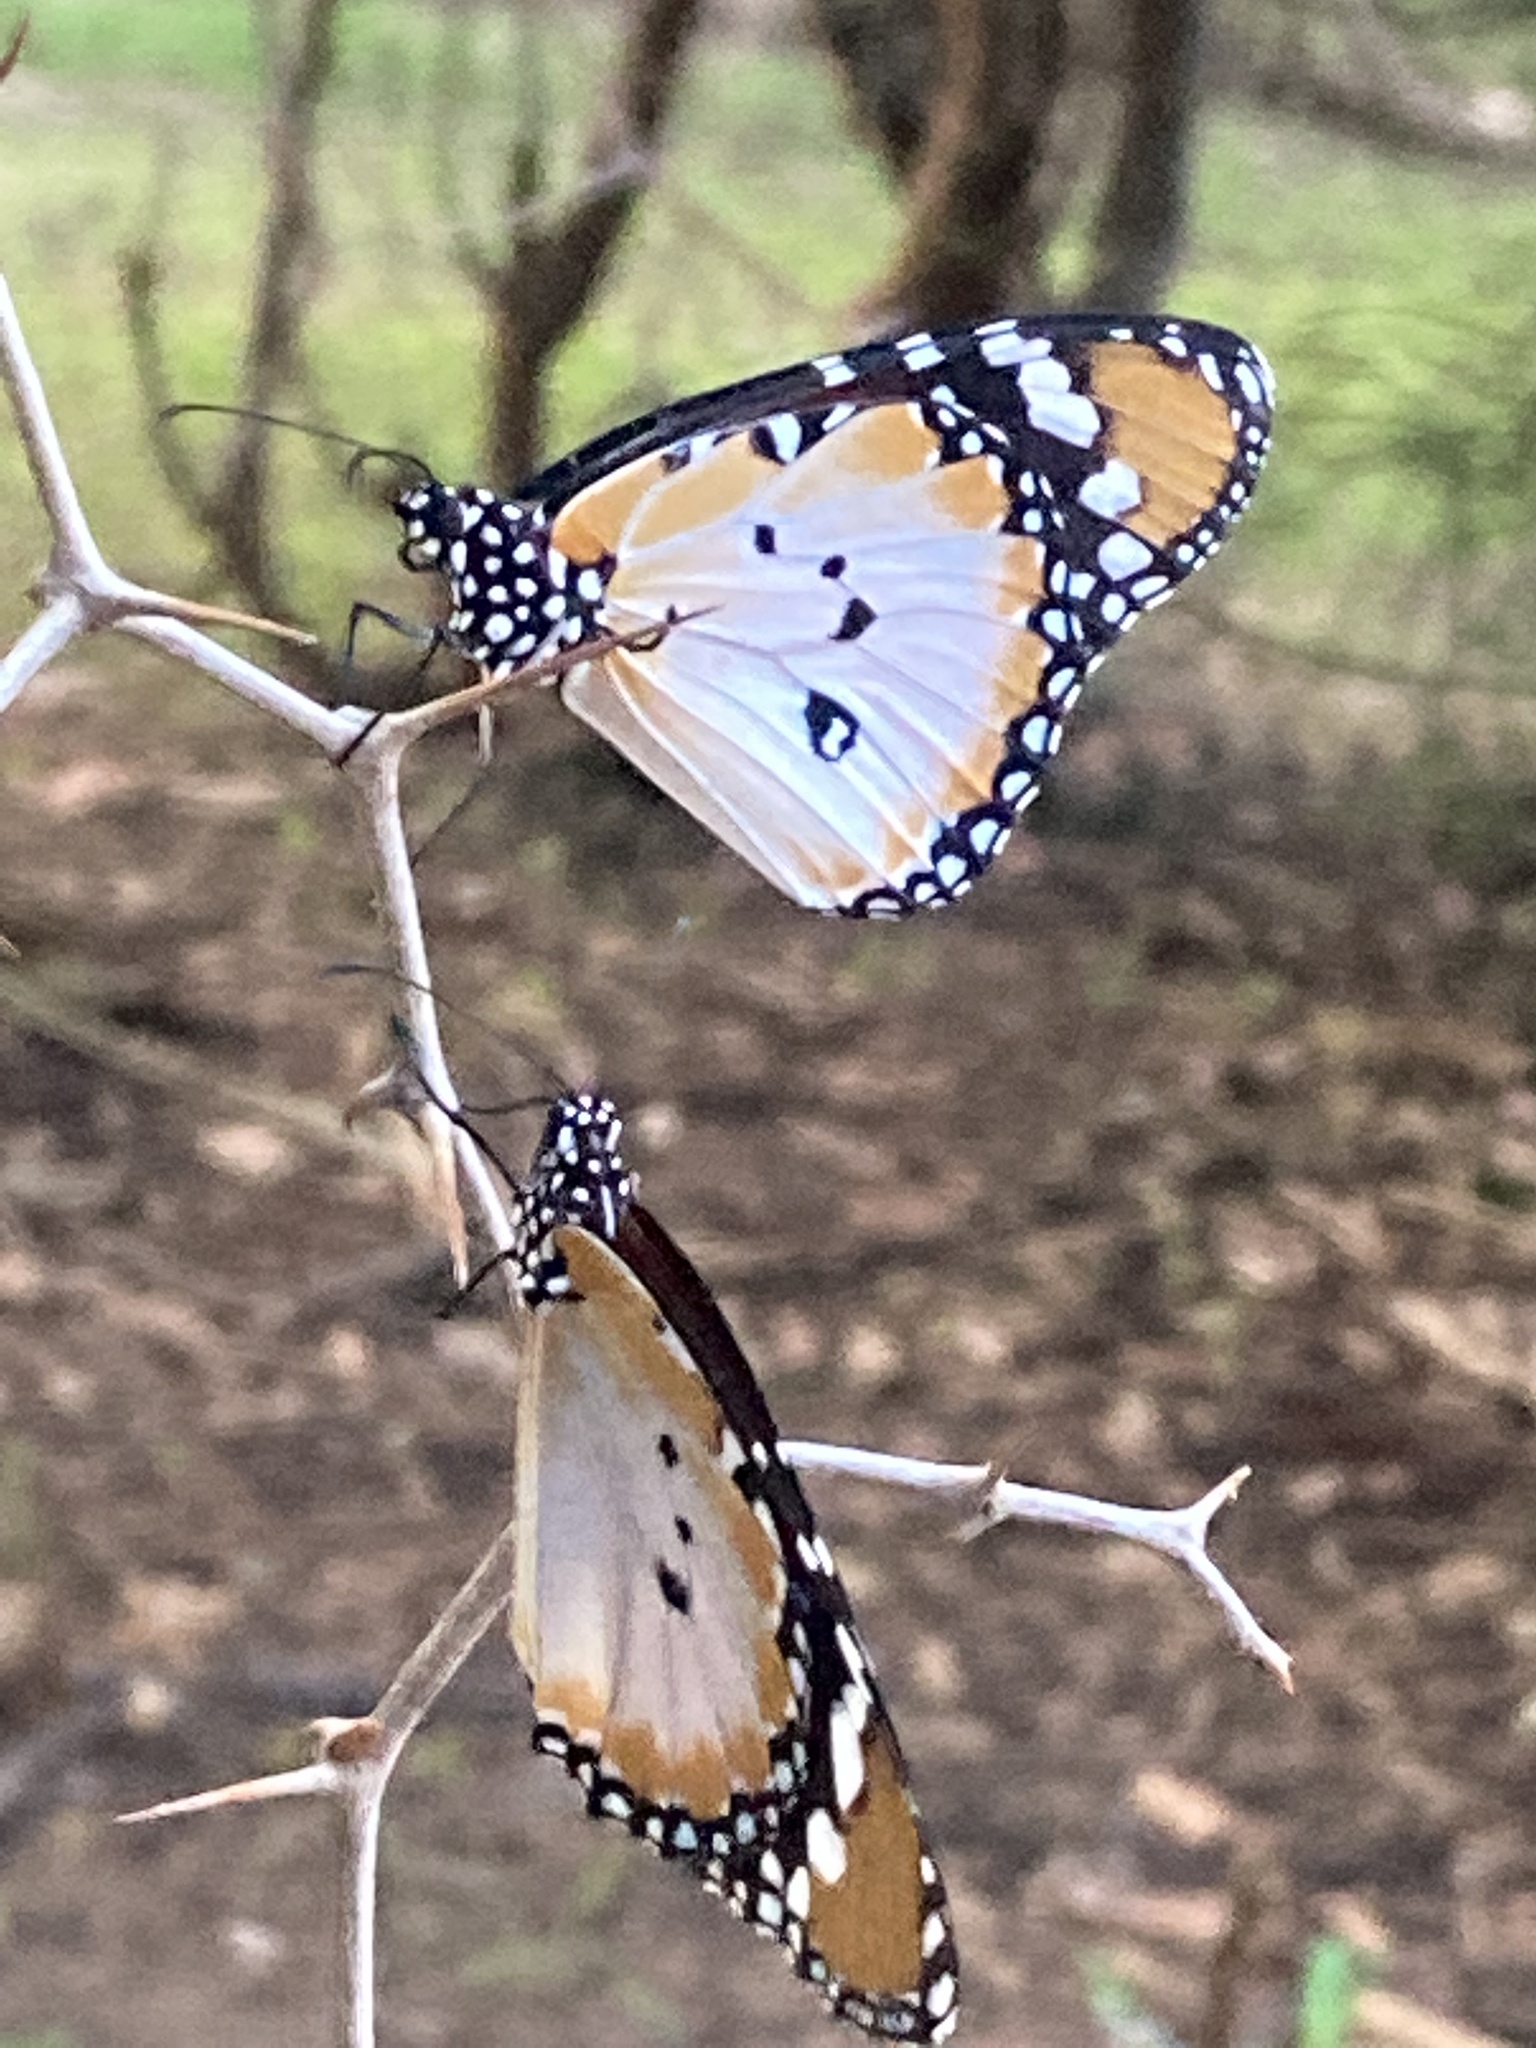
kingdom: Animalia
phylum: Arthropoda
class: Insecta
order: Lepidoptera
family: Nymphalidae
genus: Danaus
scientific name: Danaus chrysippus
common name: Plain tiger
